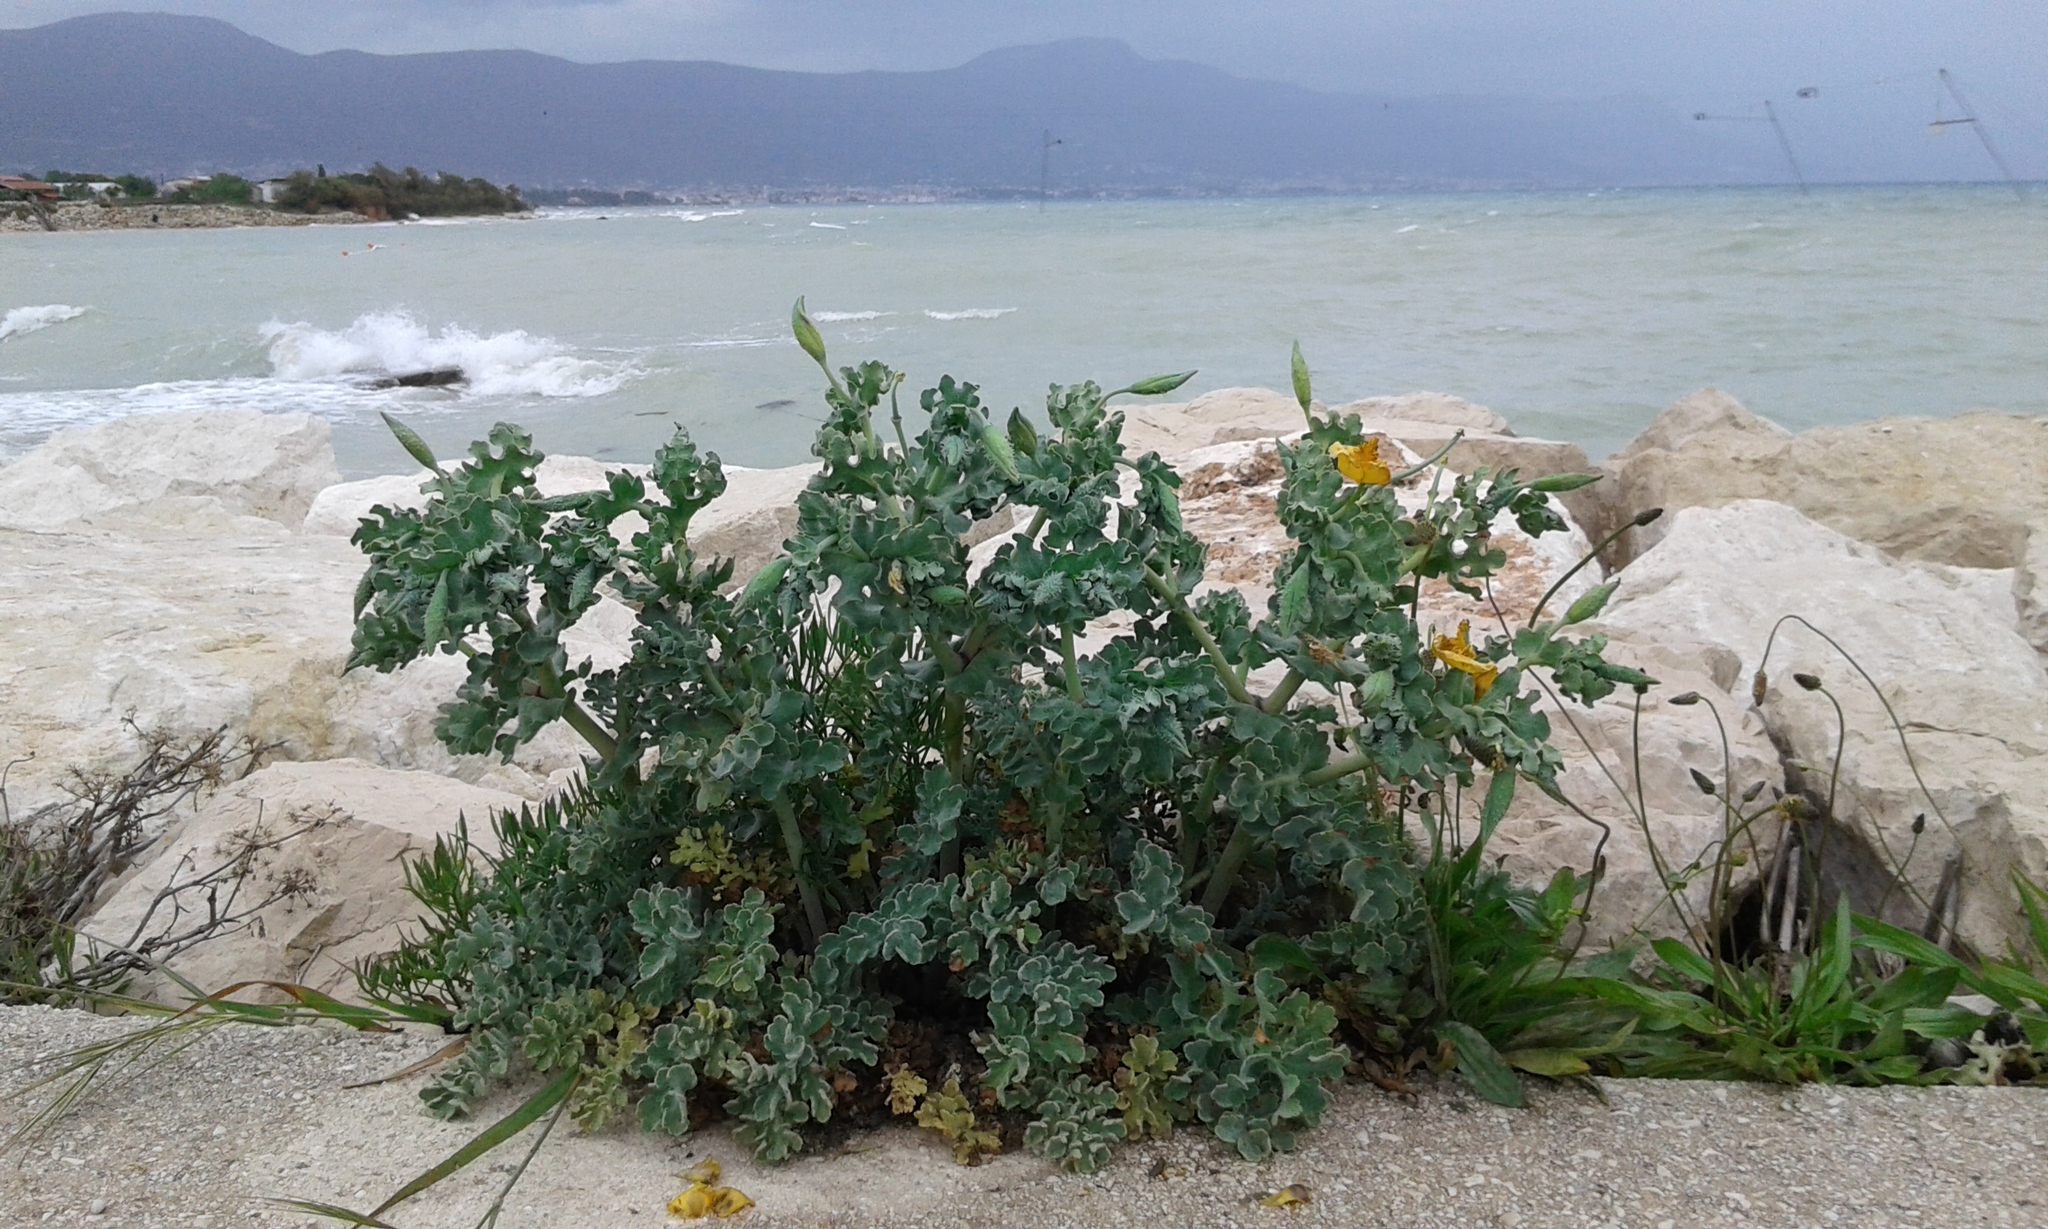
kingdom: Plantae
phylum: Tracheophyta
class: Magnoliopsida
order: Ranunculales
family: Papaveraceae
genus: Glaucium
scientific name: Glaucium flavum
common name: Yellow horned-poppy
